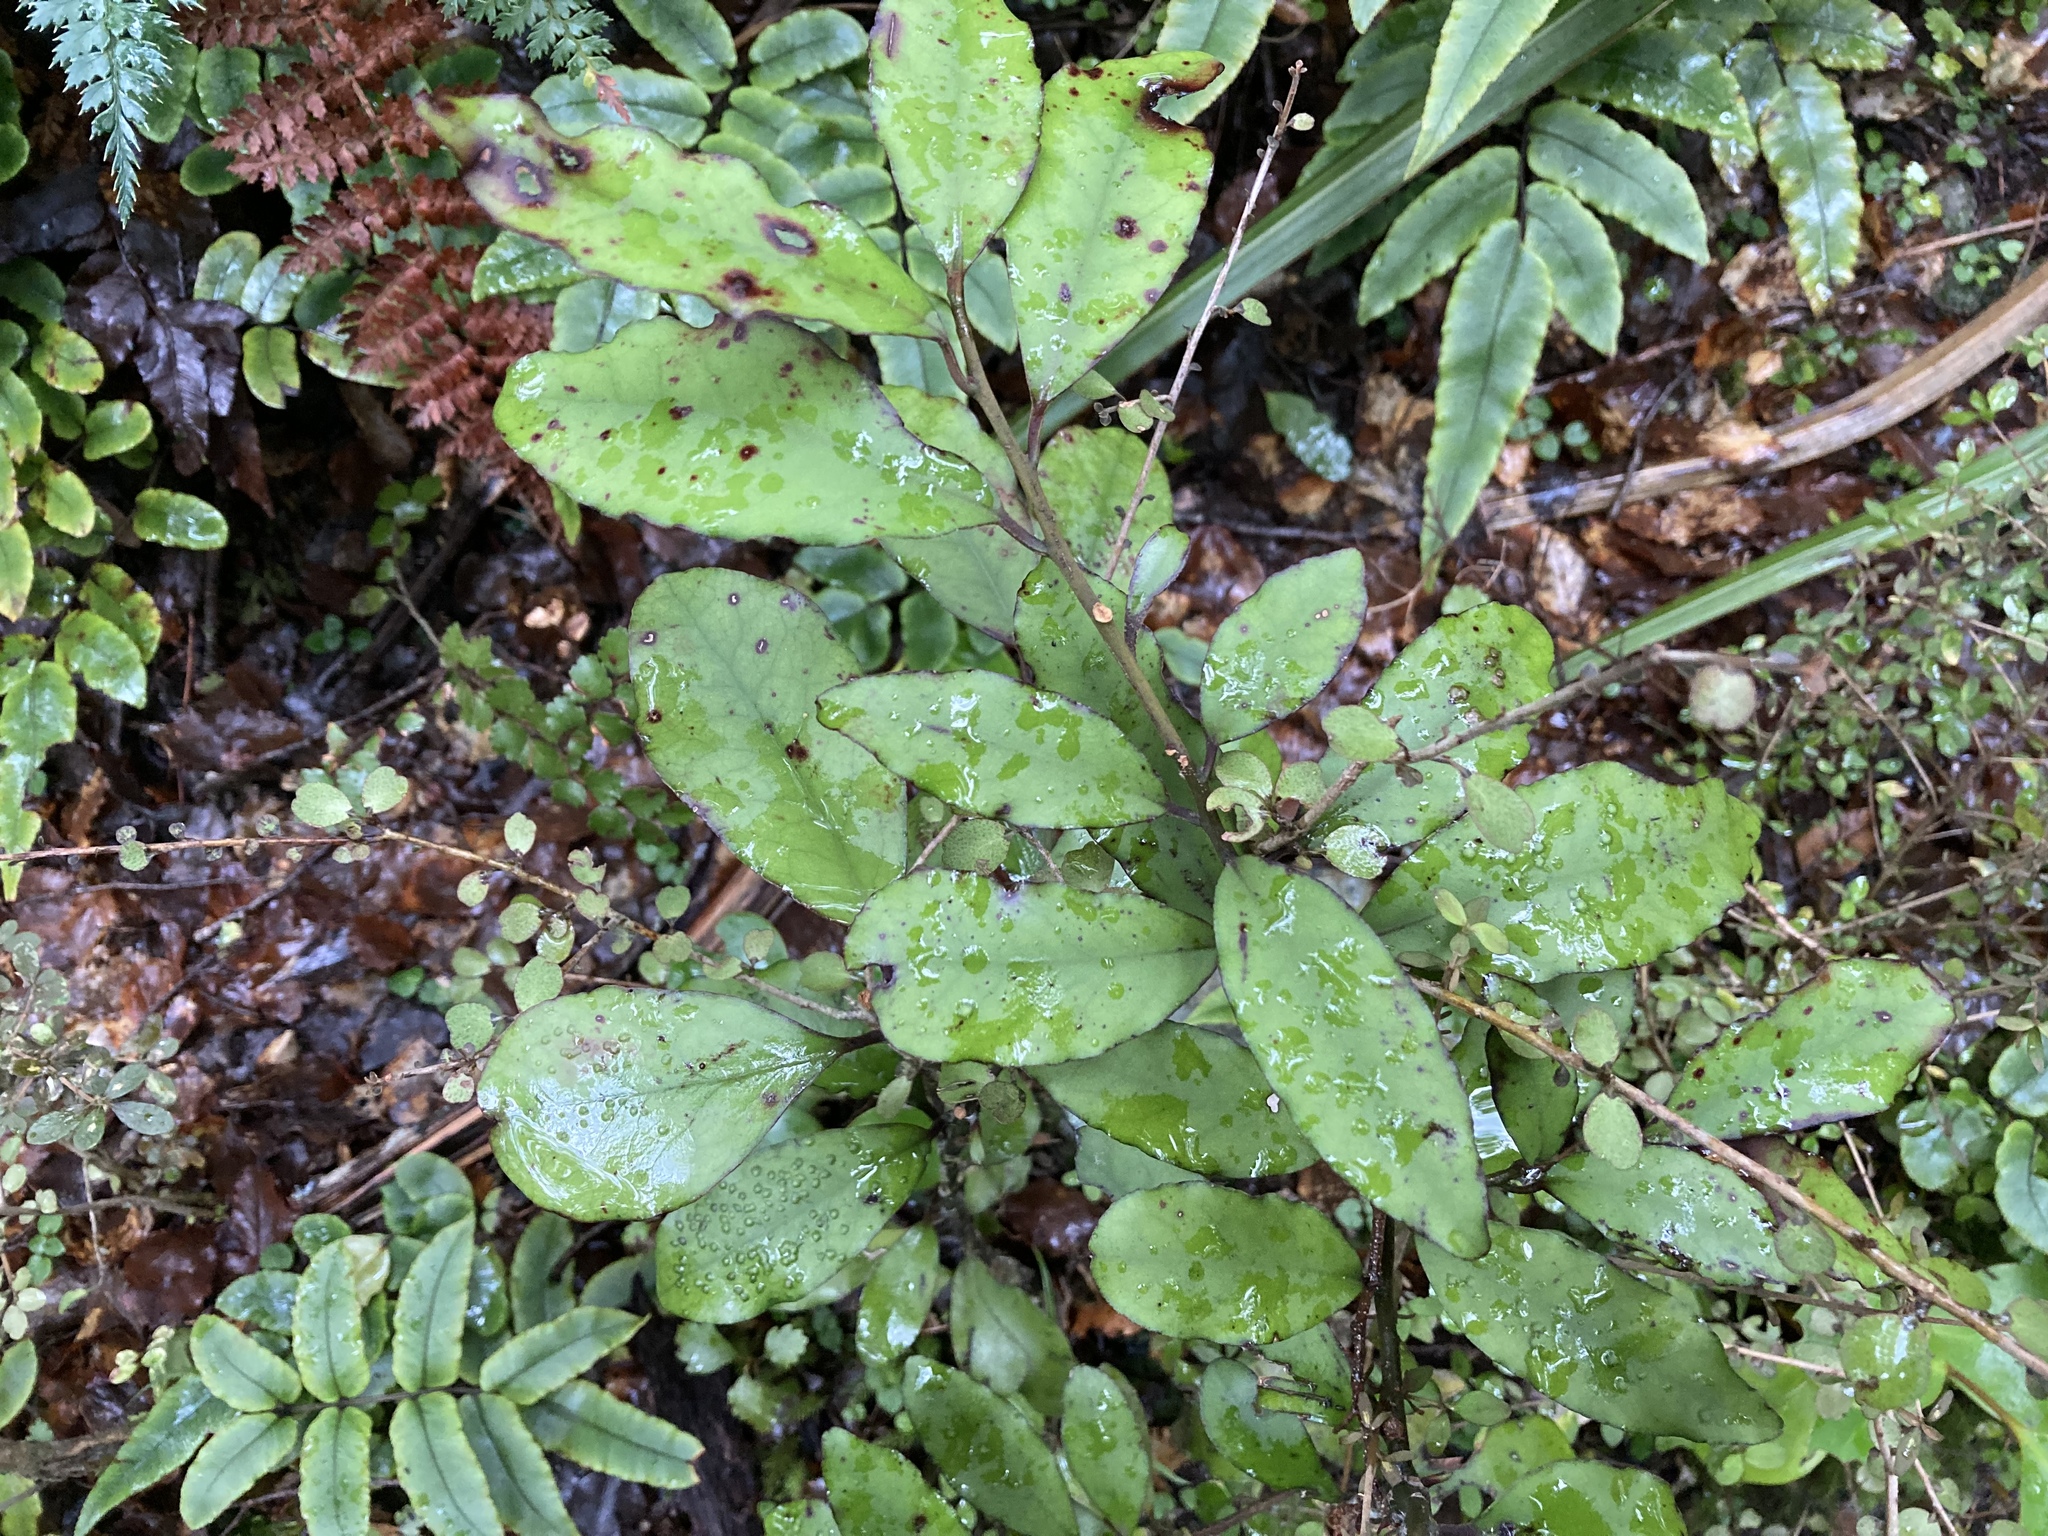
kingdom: Plantae
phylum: Tracheophyta
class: Magnoliopsida
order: Canellales
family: Winteraceae
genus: Pseudowintera
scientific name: Pseudowintera colorata
